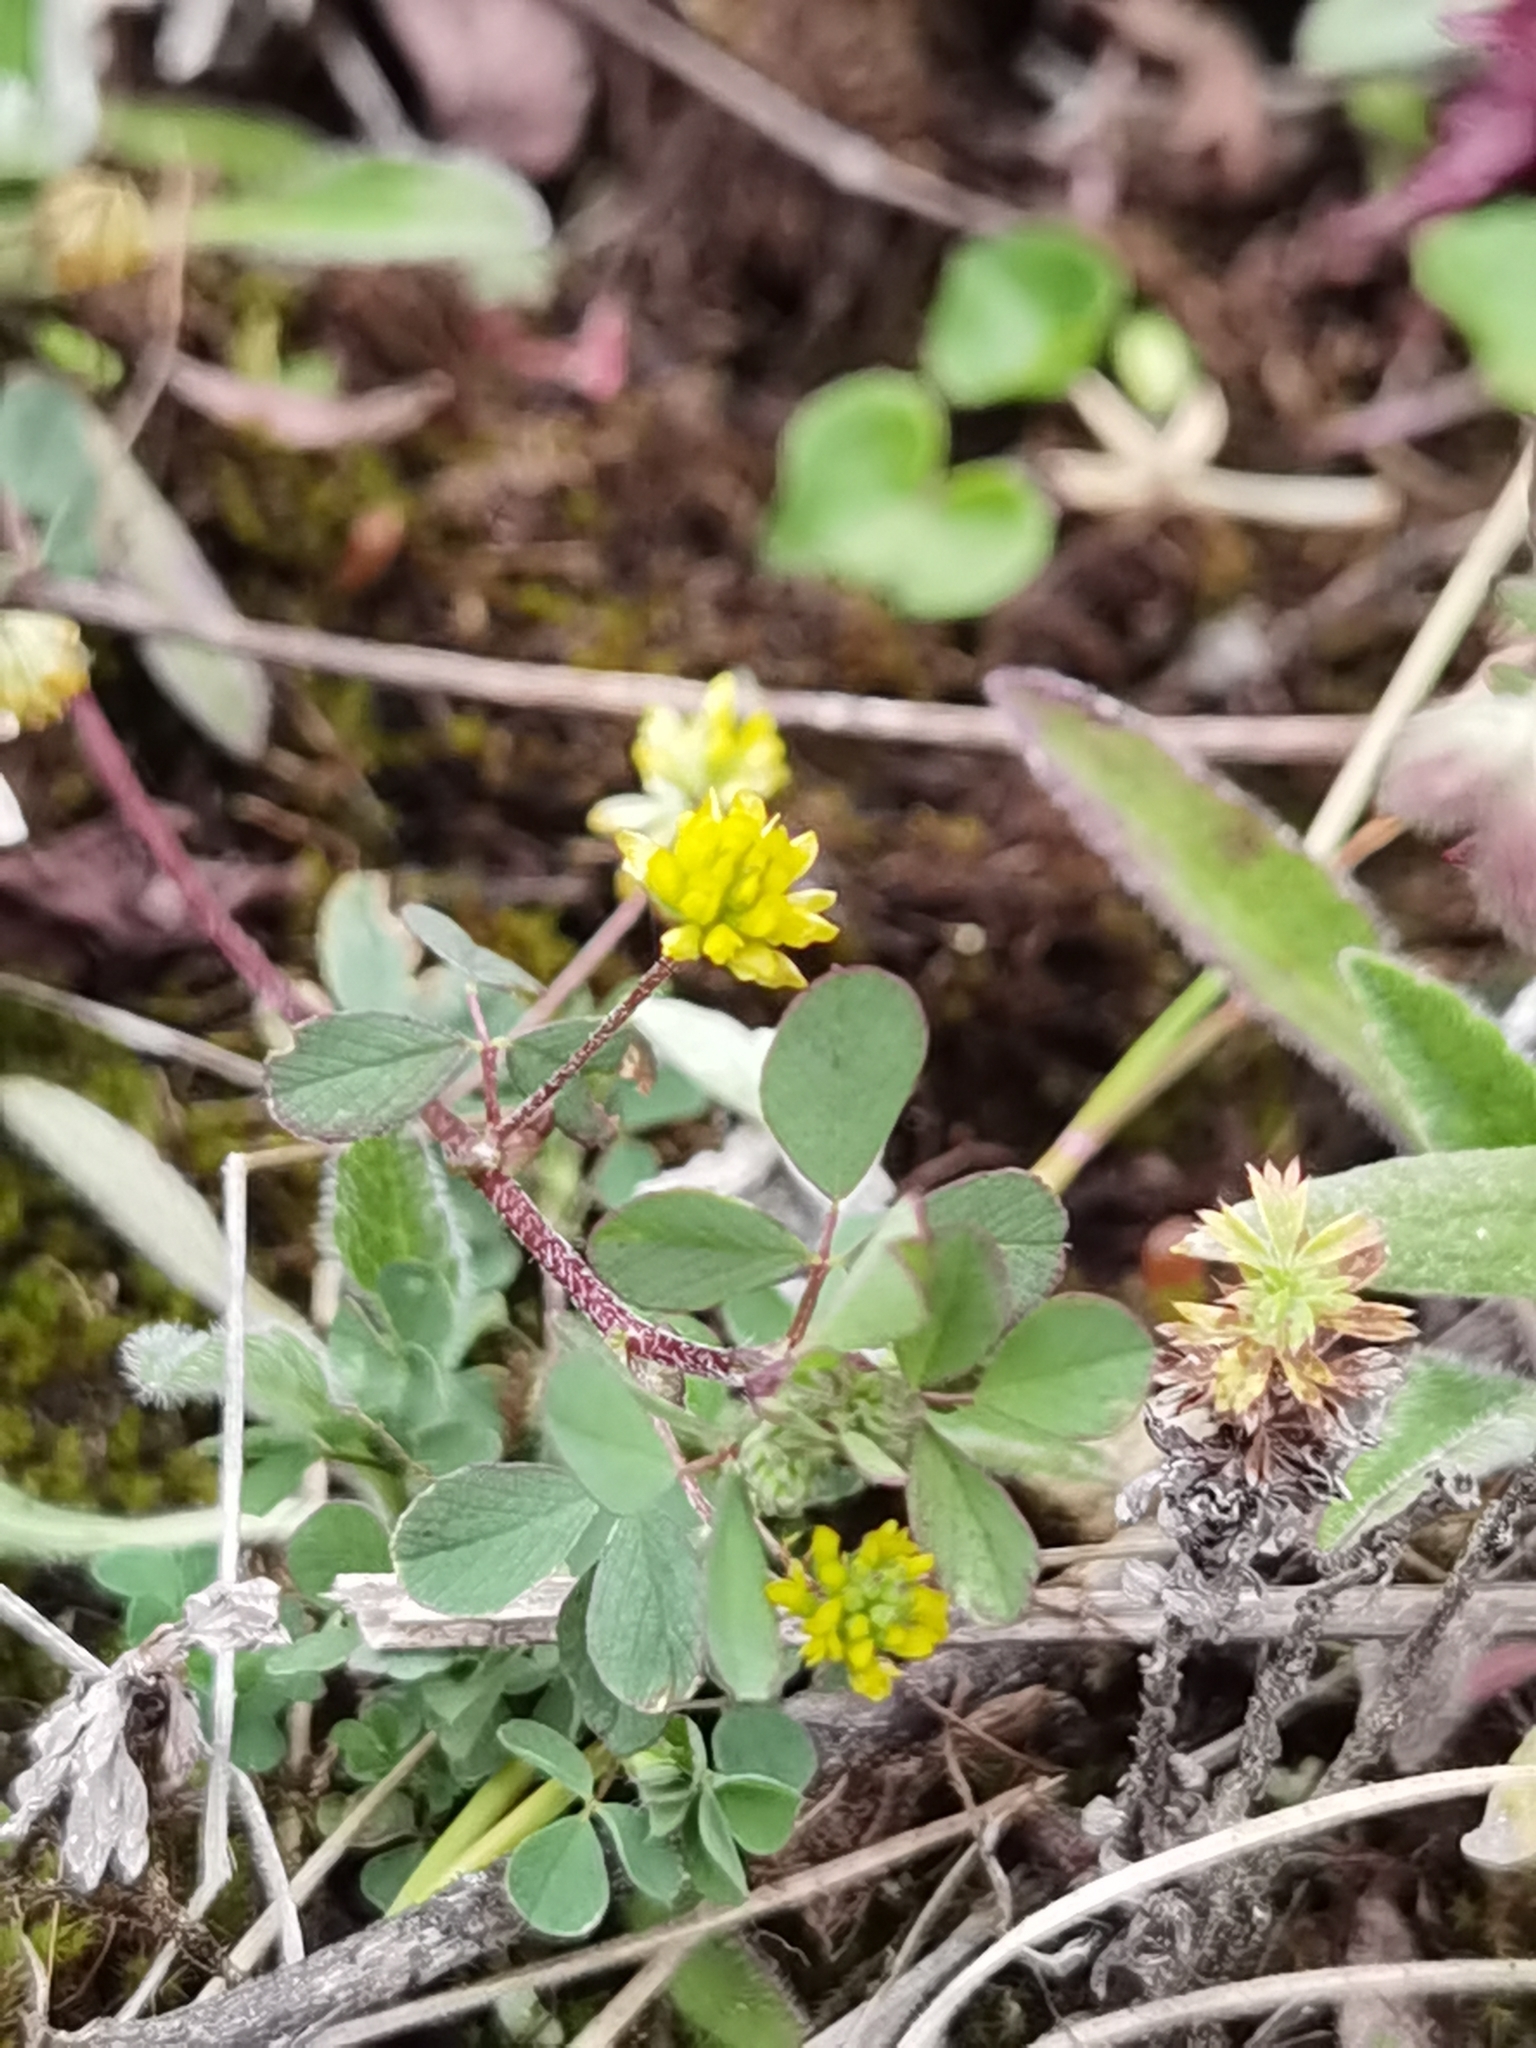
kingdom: Plantae
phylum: Tracheophyta
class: Magnoliopsida
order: Fabales
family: Fabaceae
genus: Trifolium
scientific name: Trifolium dubium
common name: Suckling clover
